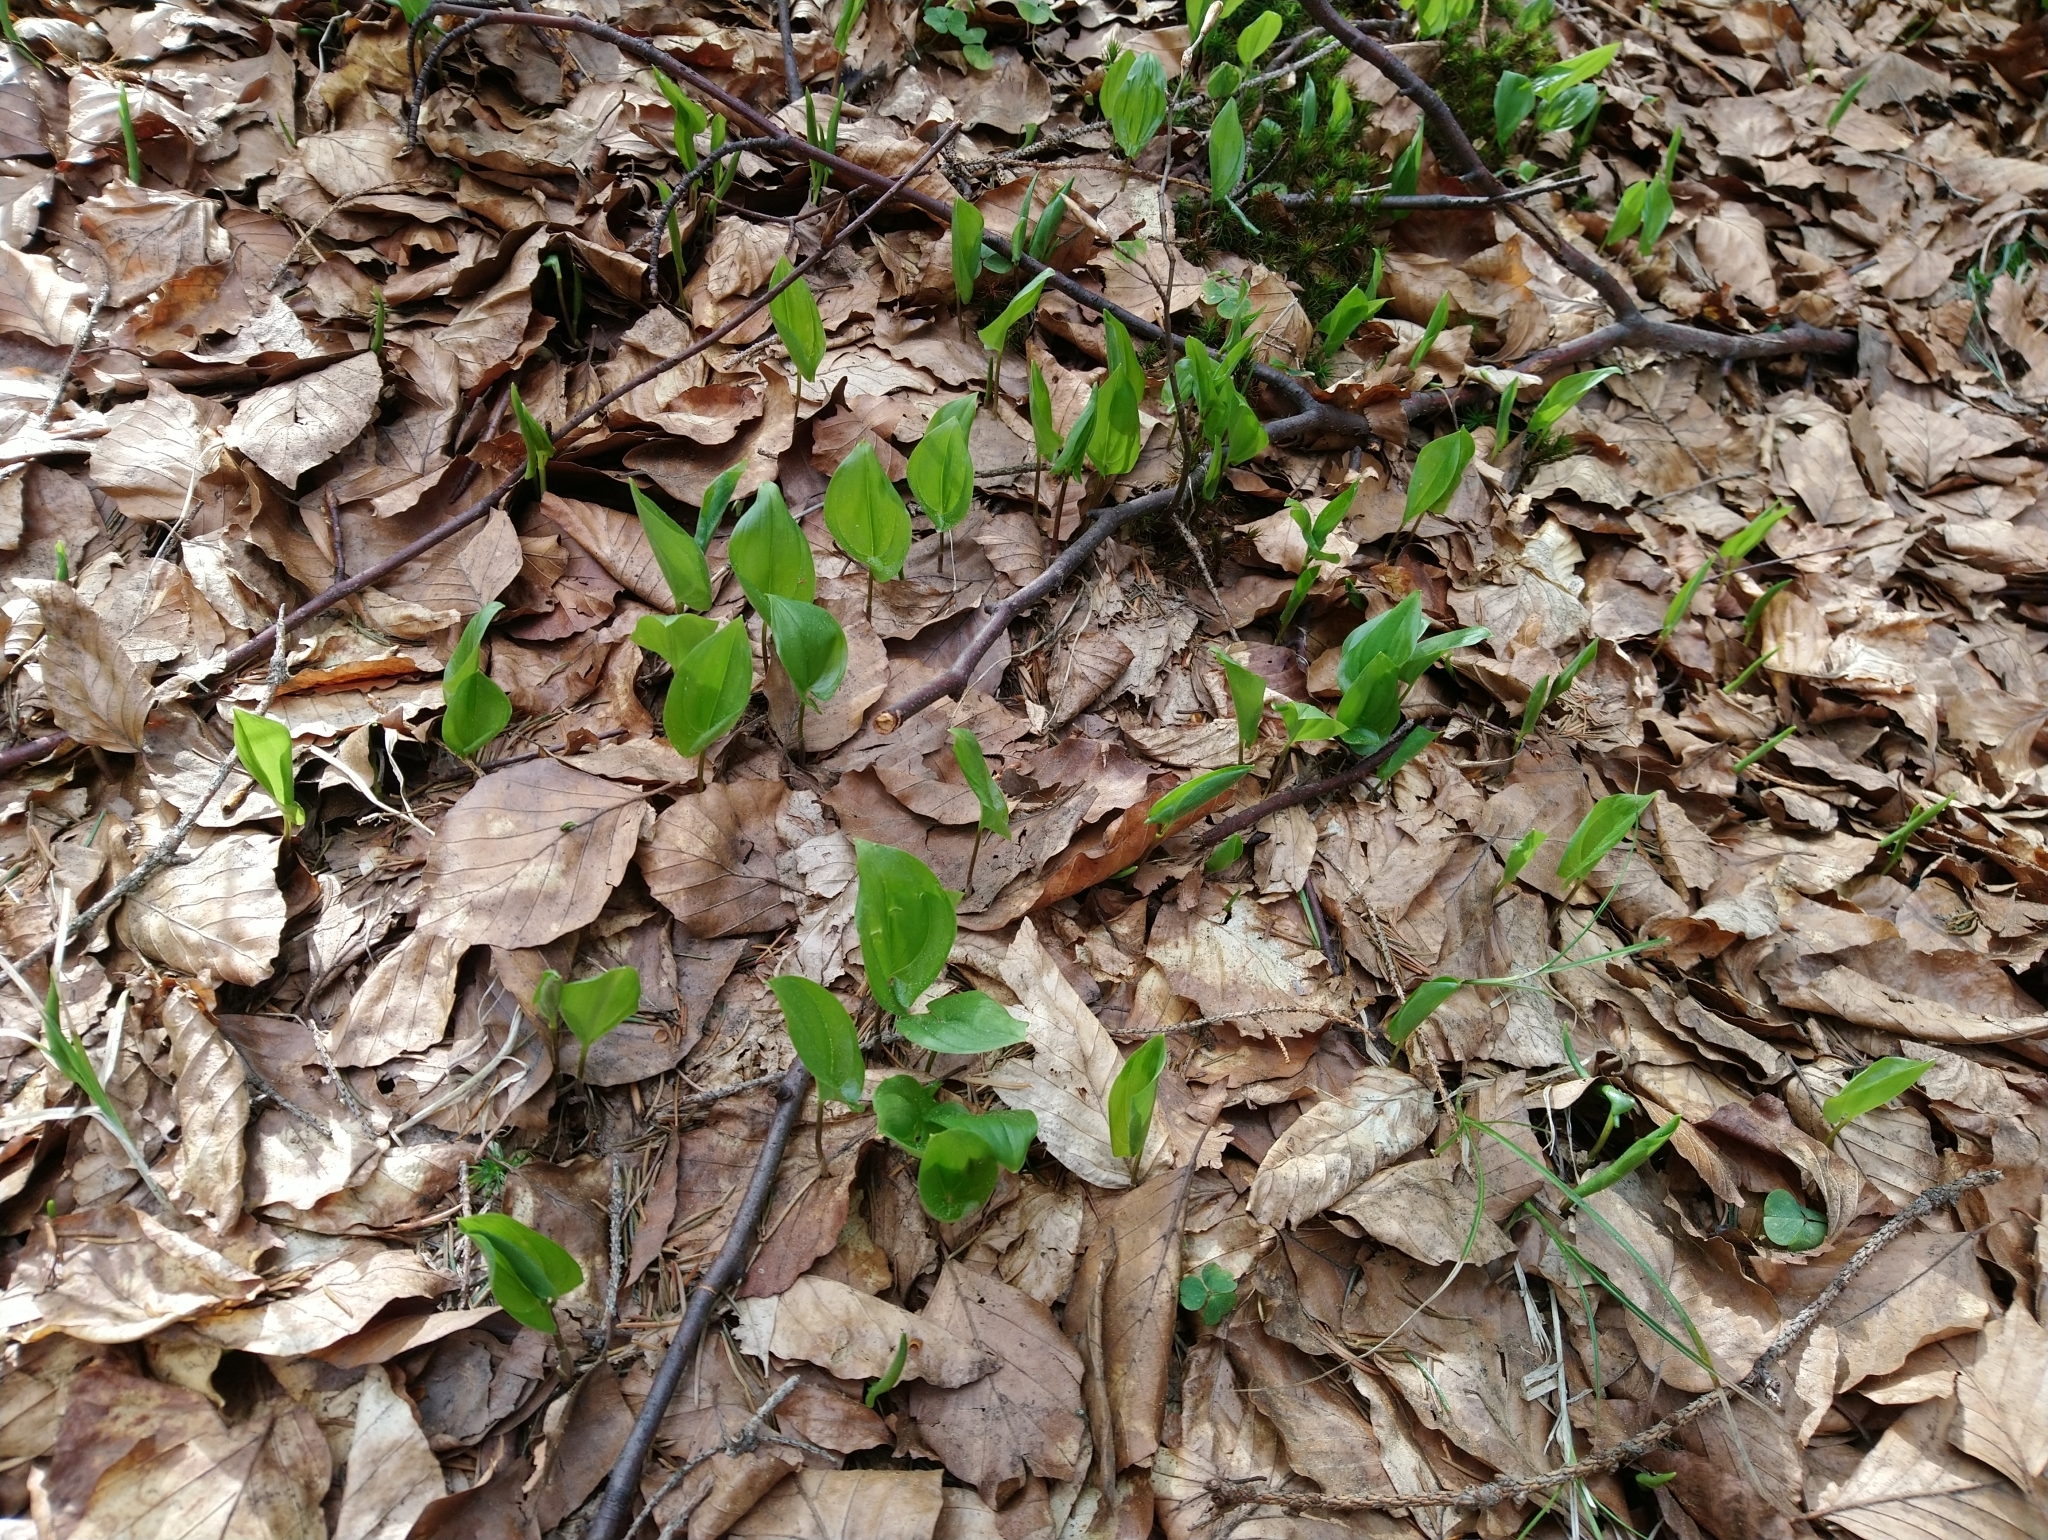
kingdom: Plantae
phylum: Tracheophyta
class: Liliopsida
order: Asparagales
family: Asparagaceae
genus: Maianthemum
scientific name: Maianthemum bifolium
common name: May lily
